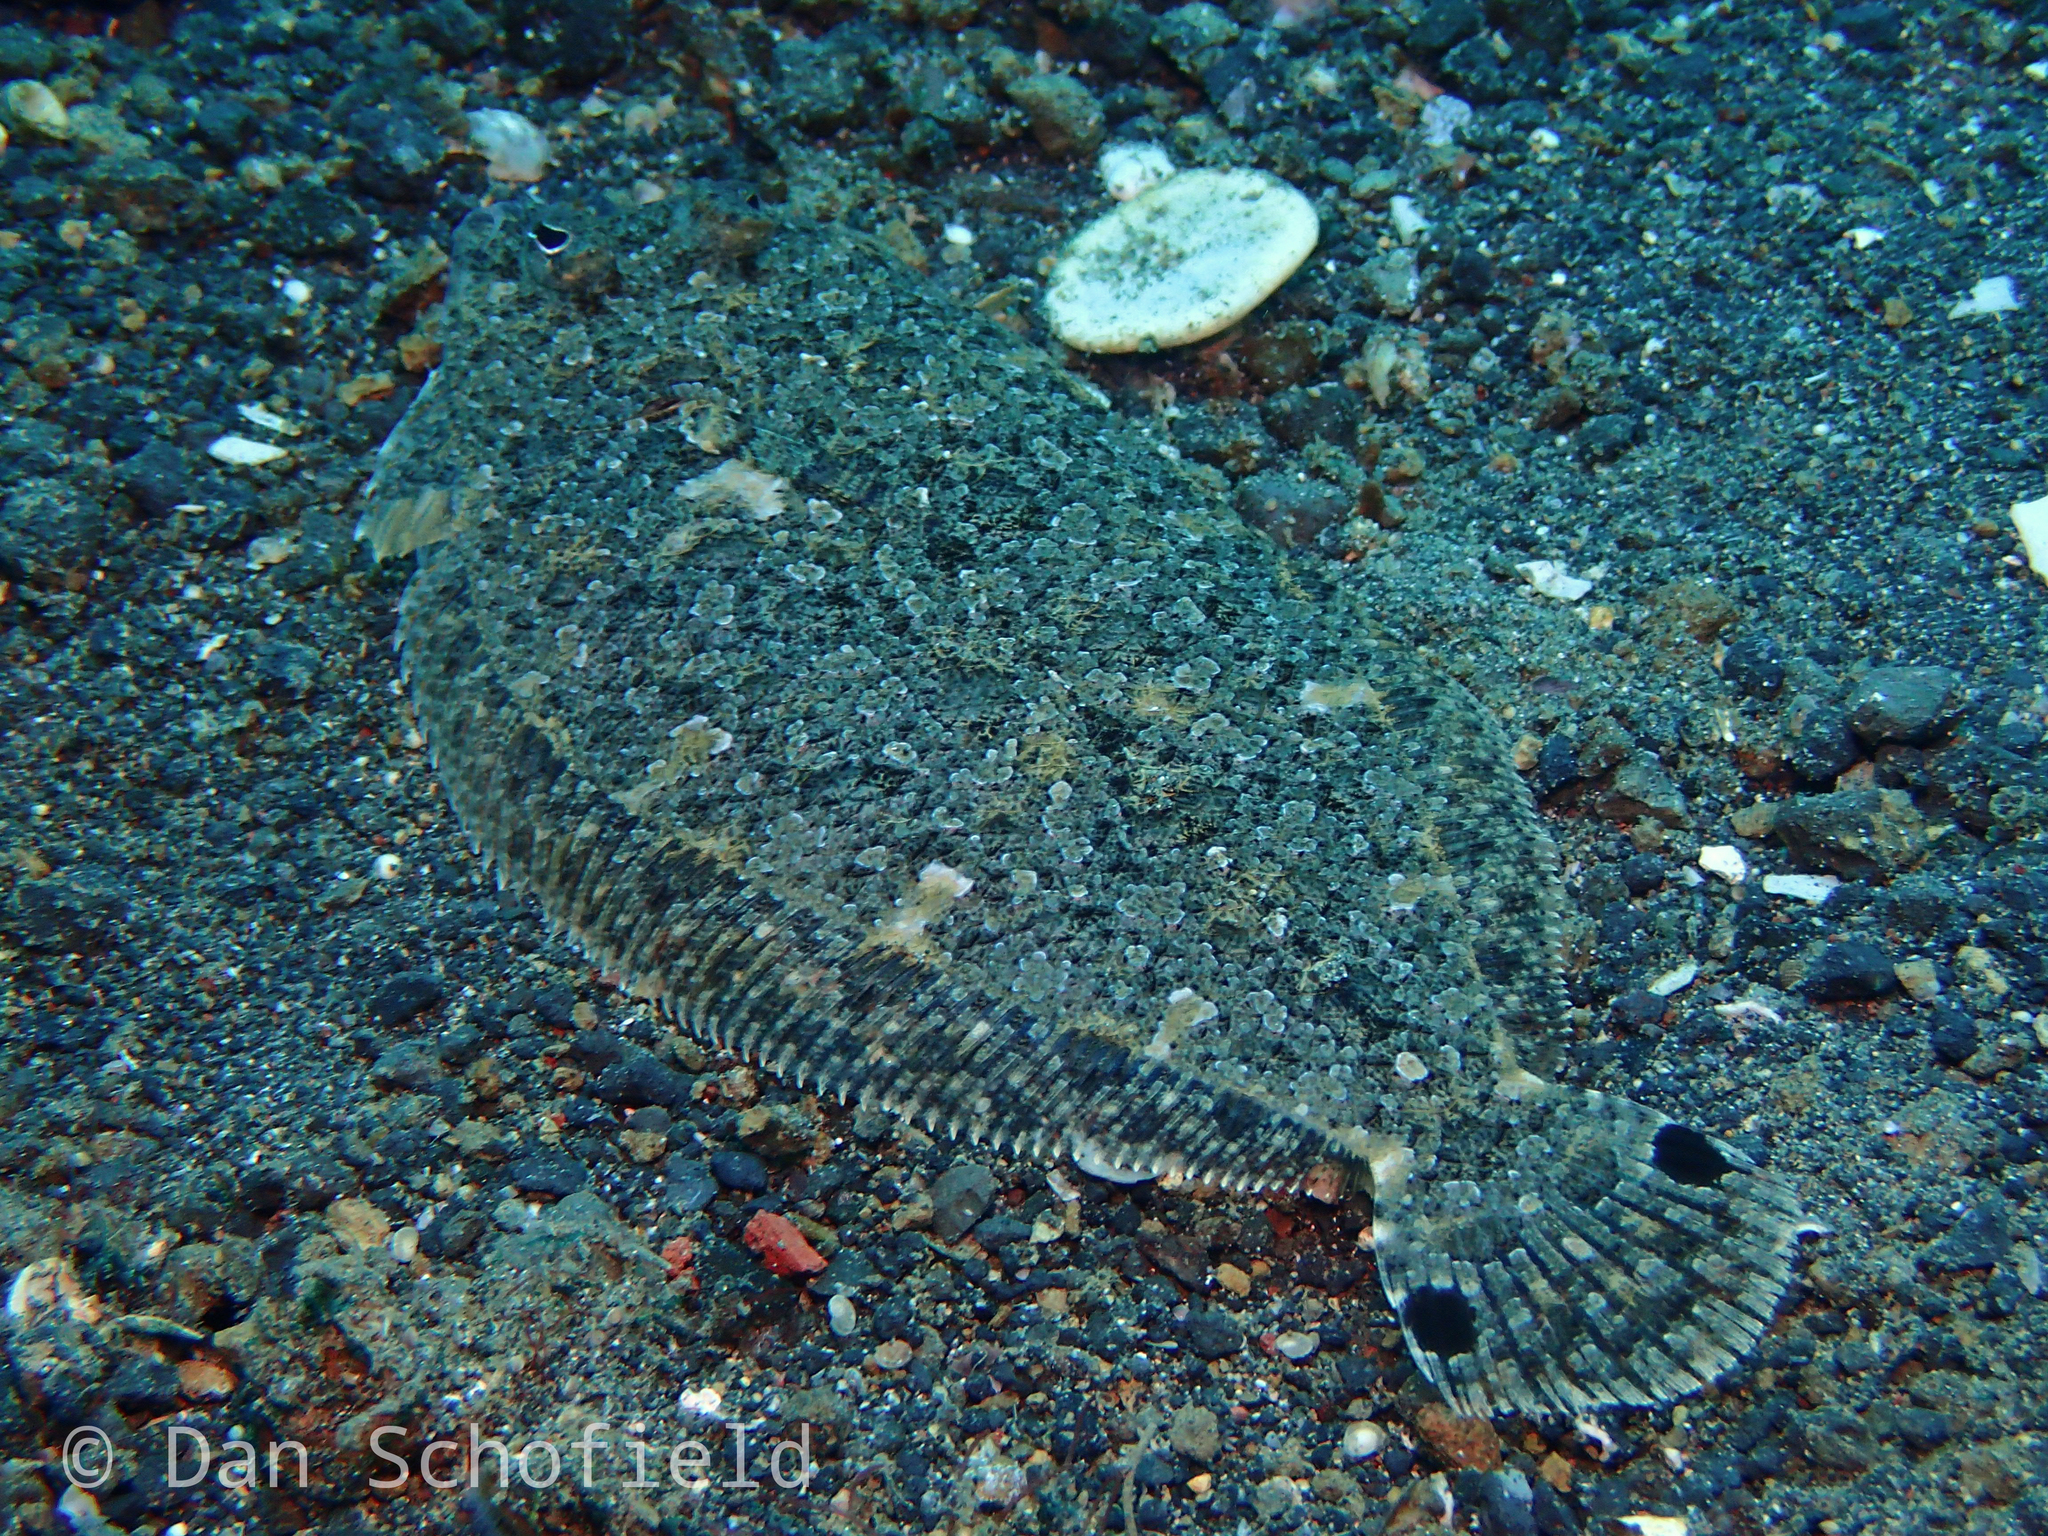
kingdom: Animalia
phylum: Chordata
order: Pleuronectiformes
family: Bothidae
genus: Engyprosopon
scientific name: Engyprosopon grandisquama
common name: Largescale flounder
